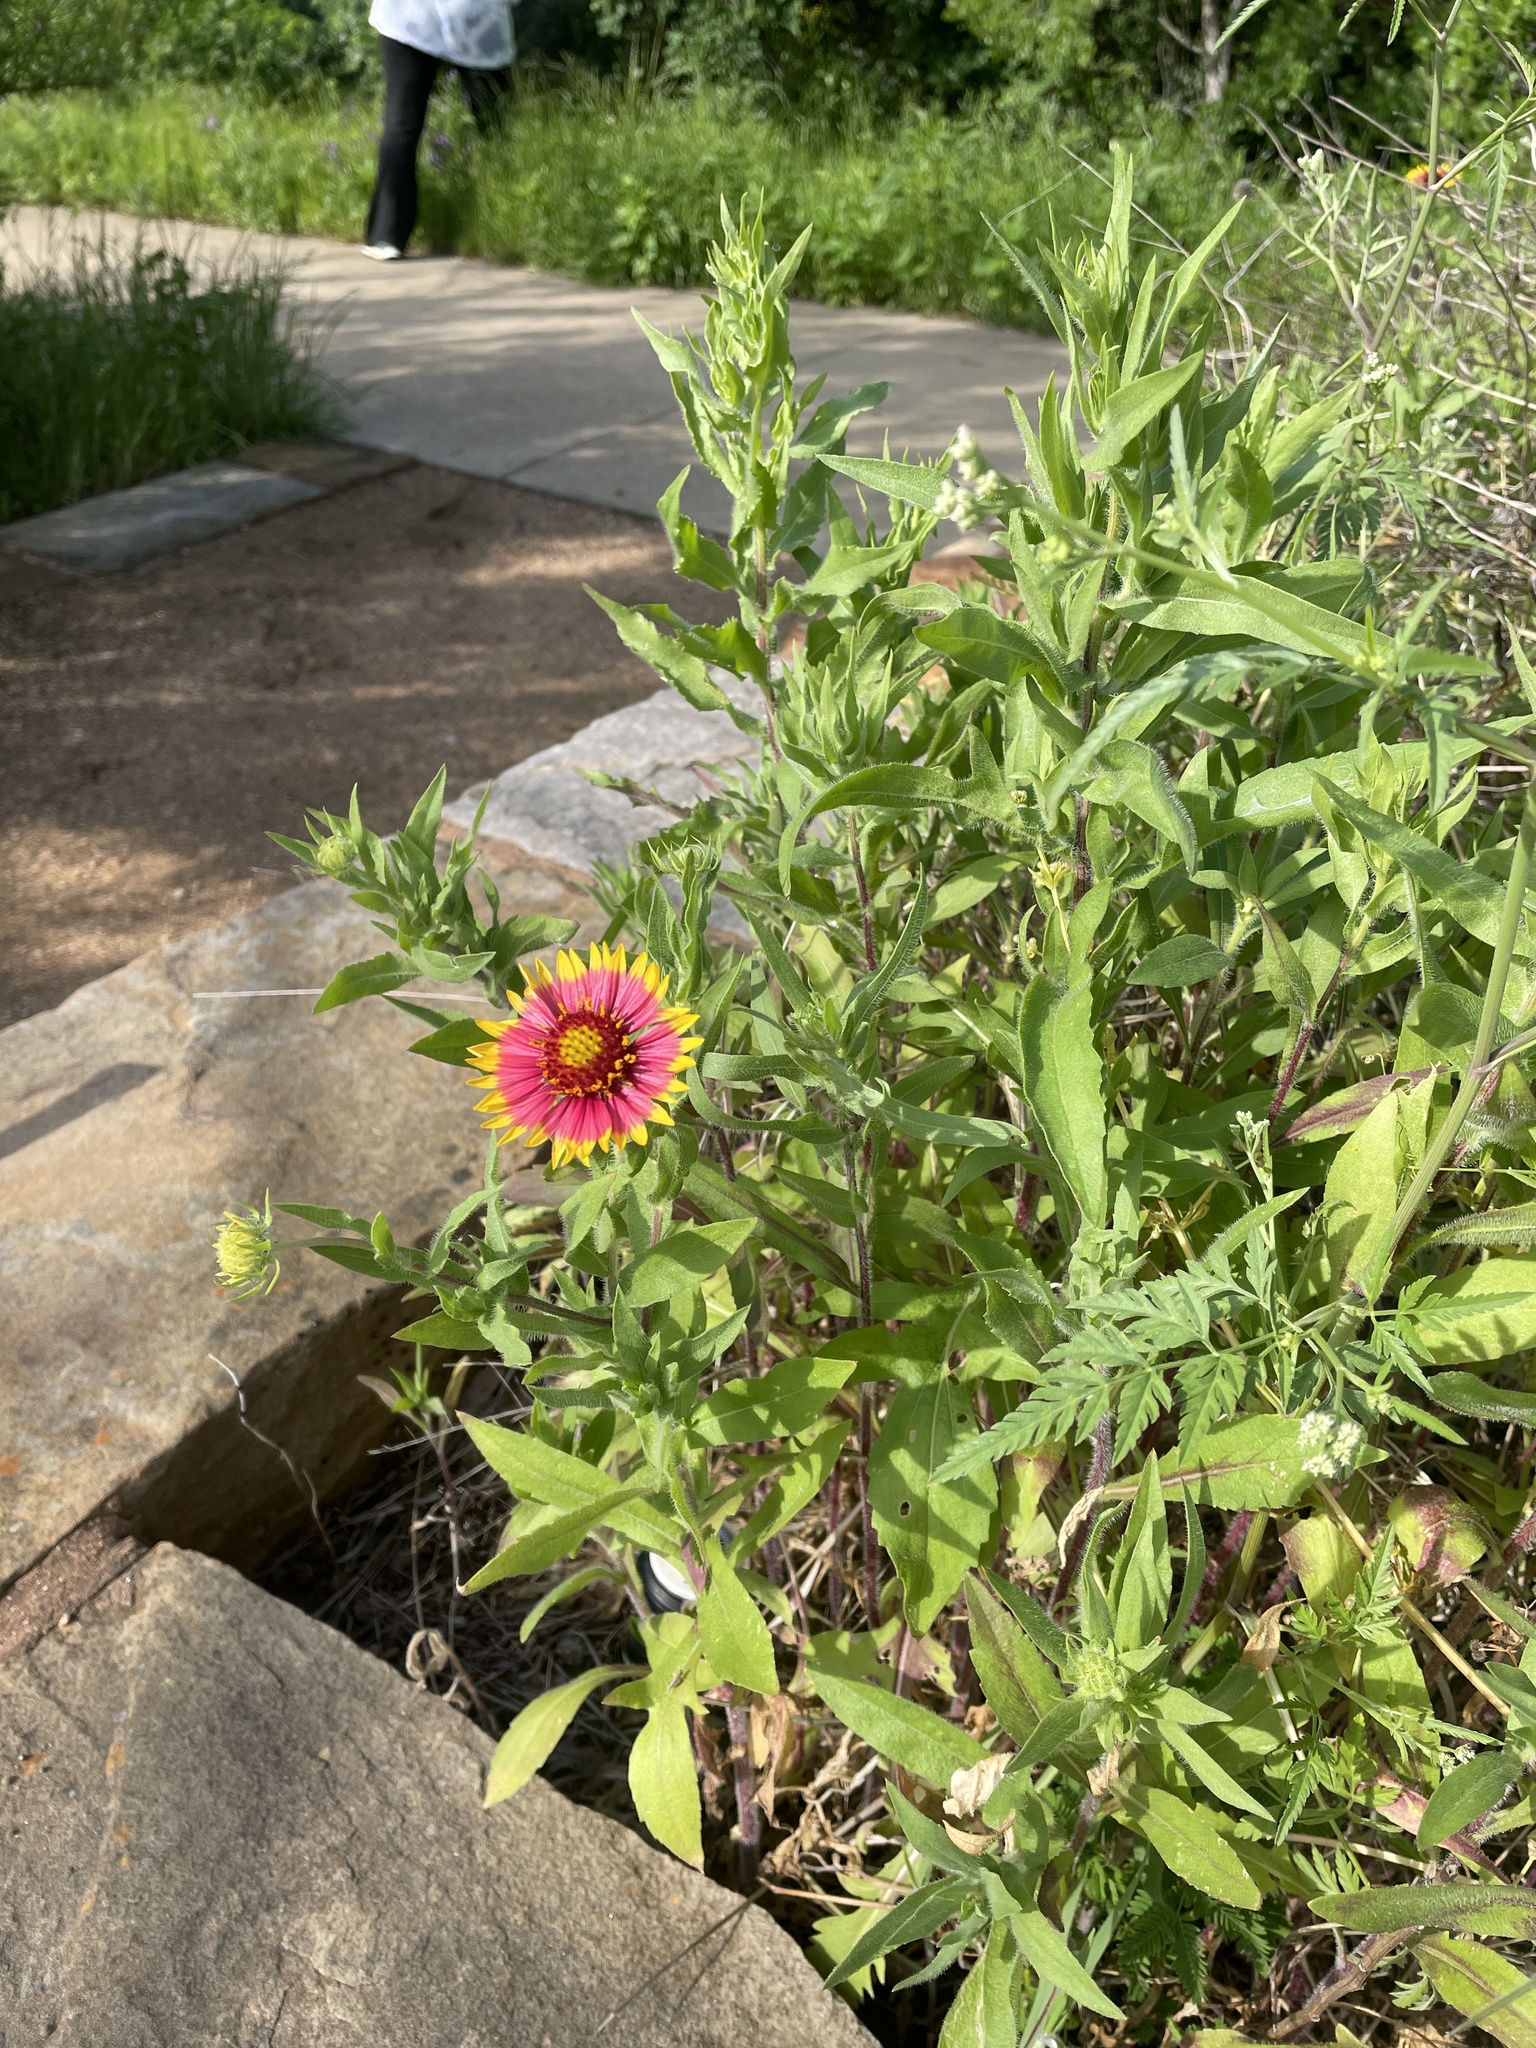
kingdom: Plantae
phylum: Tracheophyta
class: Magnoliopsida
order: Asterales
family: Asteraceae
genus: Gaillardia
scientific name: Gaillardia pulchella
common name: Firewheel
